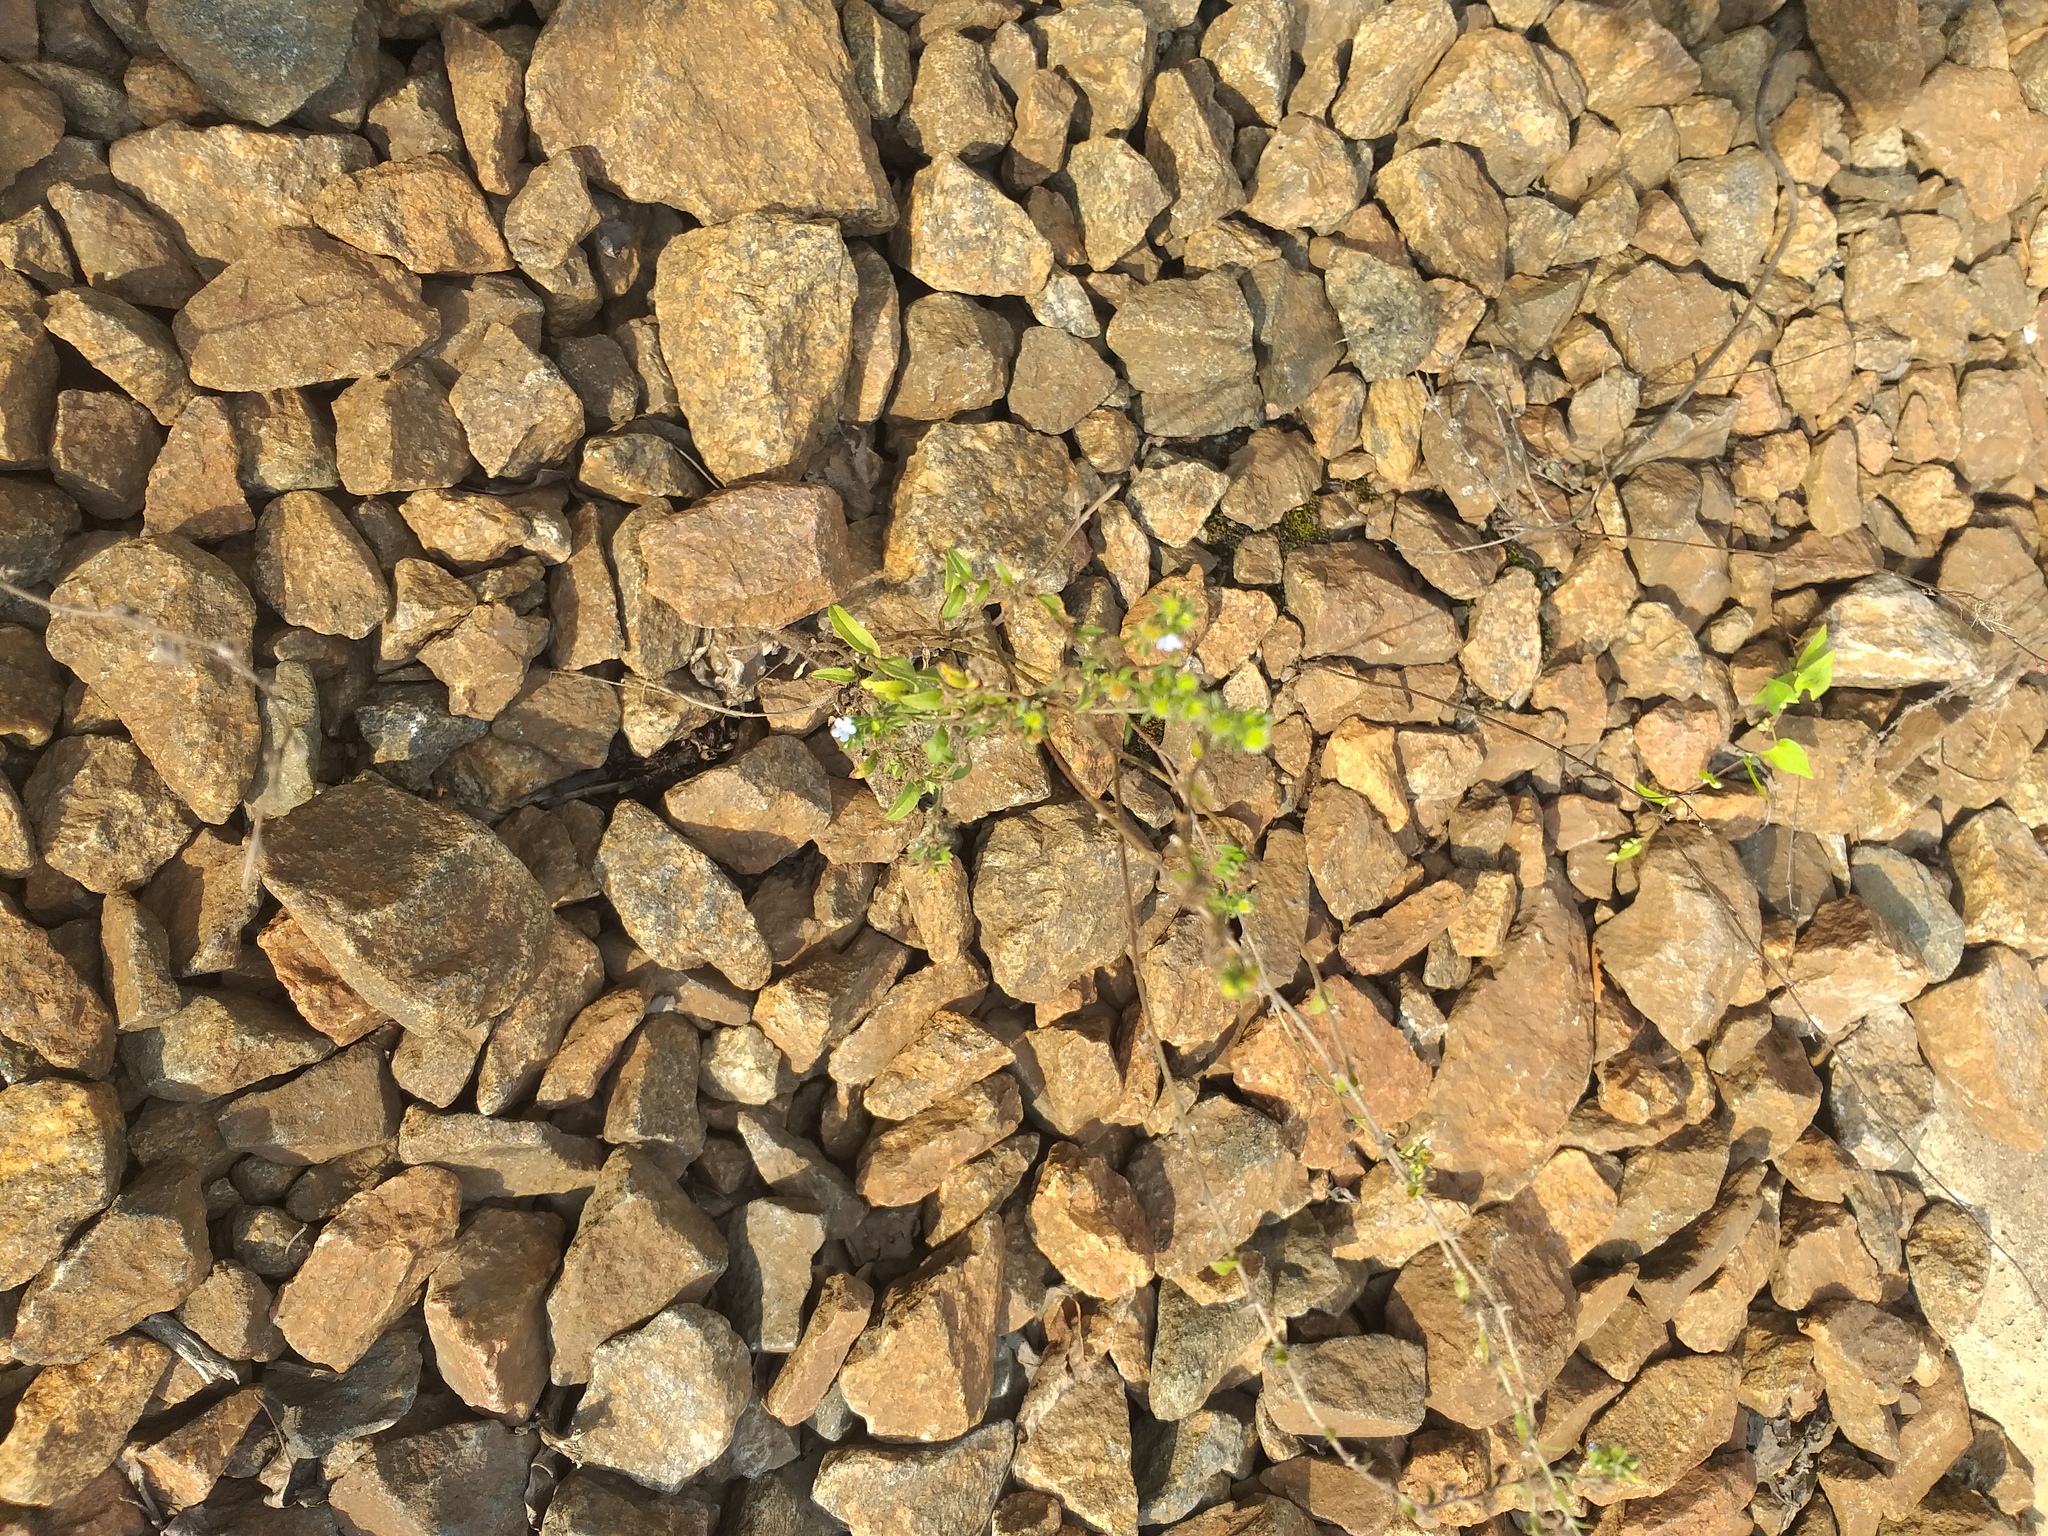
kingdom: Plantae
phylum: Tracheophyta
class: Magnoliopsida
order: Boraginales
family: Boraginaceae
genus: Lappula
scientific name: Lappula squarrosa
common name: European stickseed
